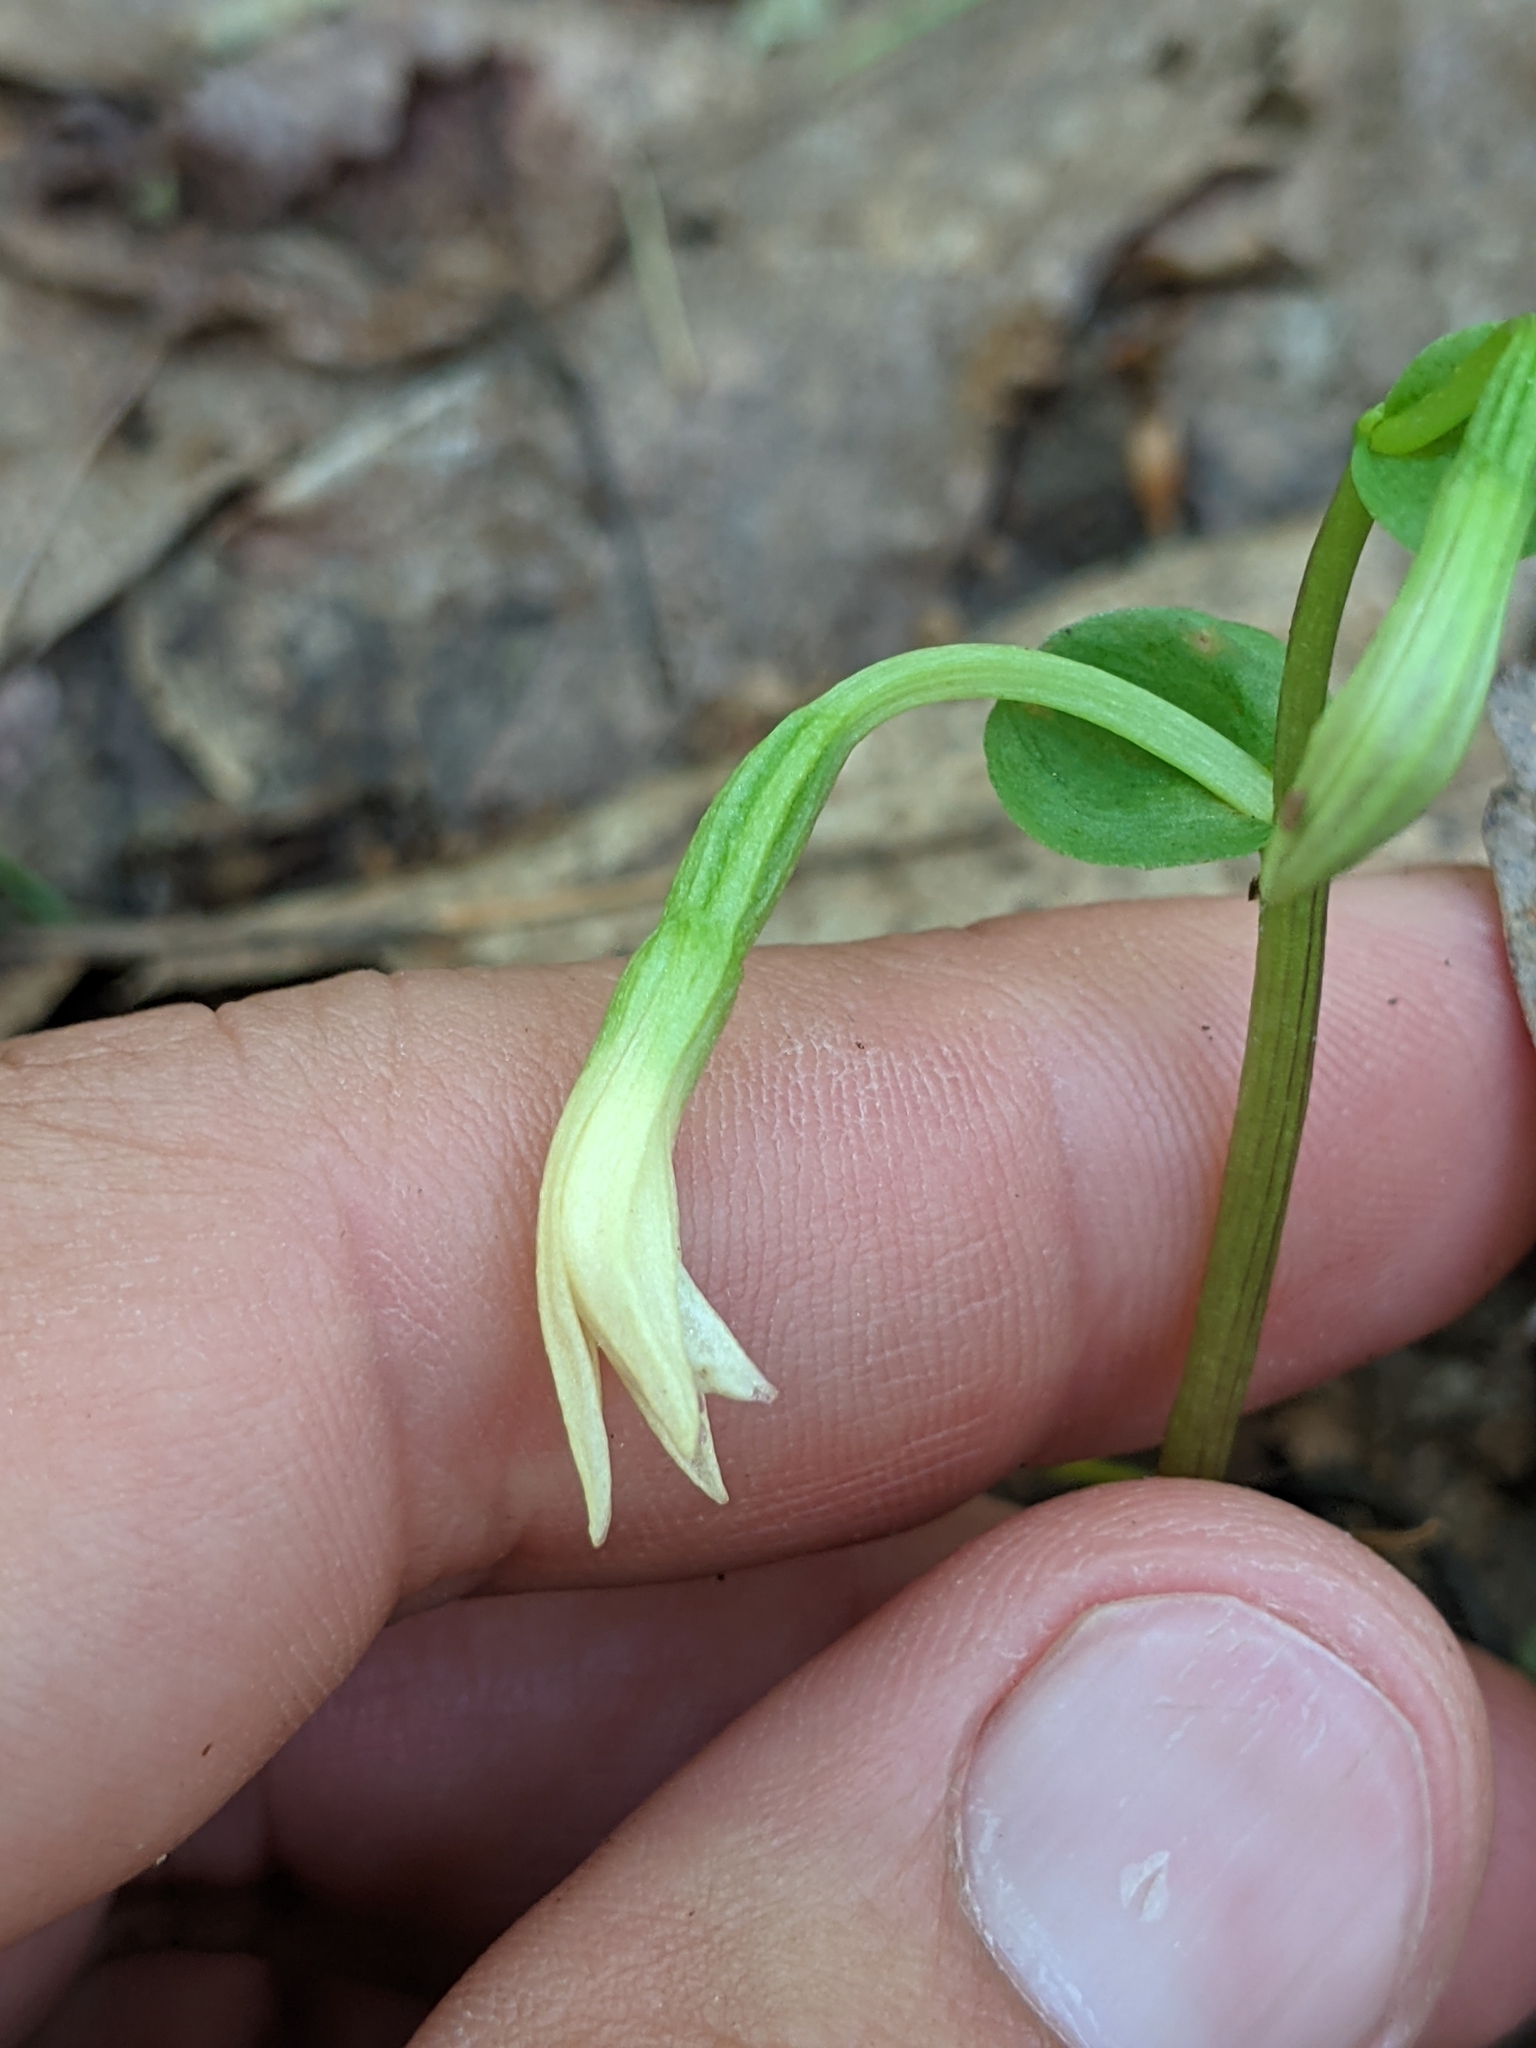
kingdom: Plantae
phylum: Tracheophyta
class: Liliopsida
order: Asparagales
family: Orchidaceae
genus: Triphora
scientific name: Triphora trianthophoros
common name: Three birds orchid
